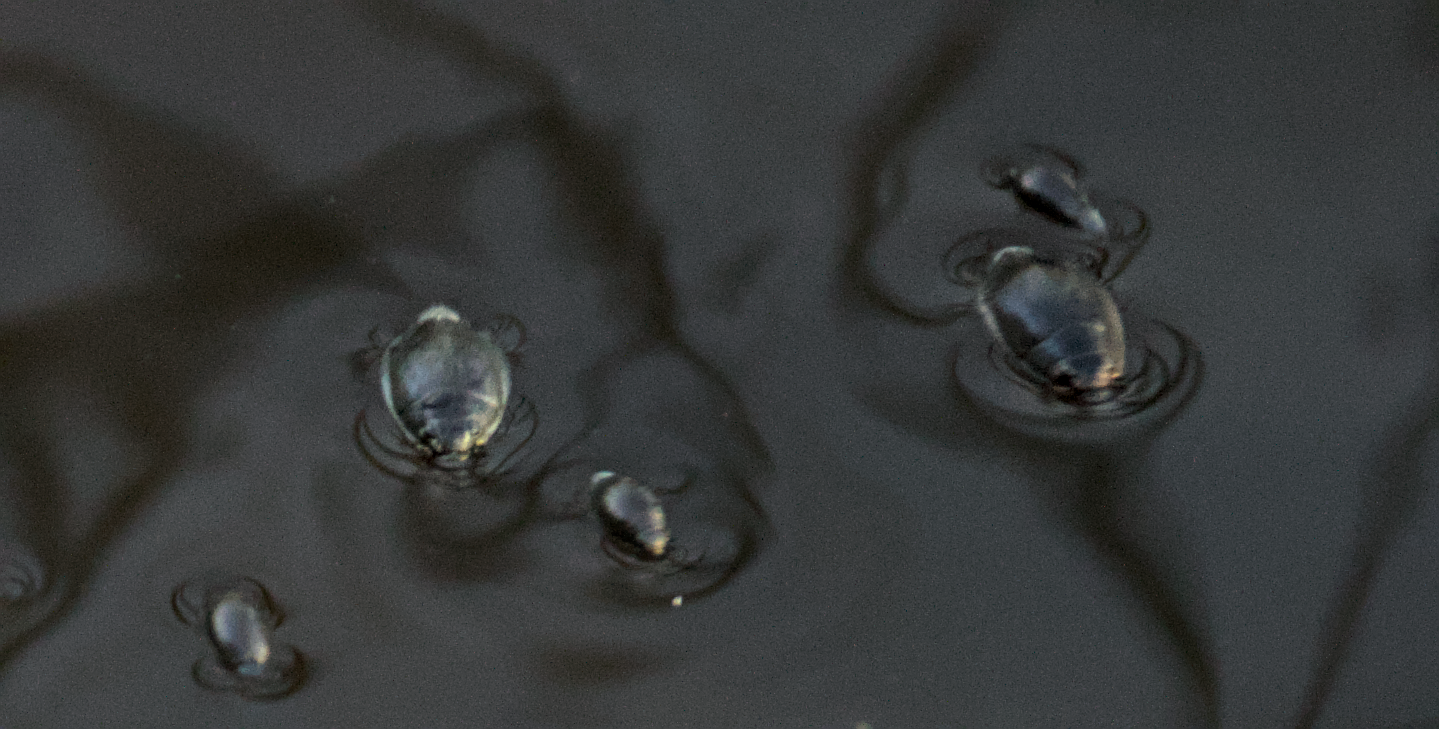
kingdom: Animalia
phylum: Arthropoda
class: Insecta
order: Coleoptera
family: Gyrinidae
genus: Dineutus
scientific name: Dineutus
